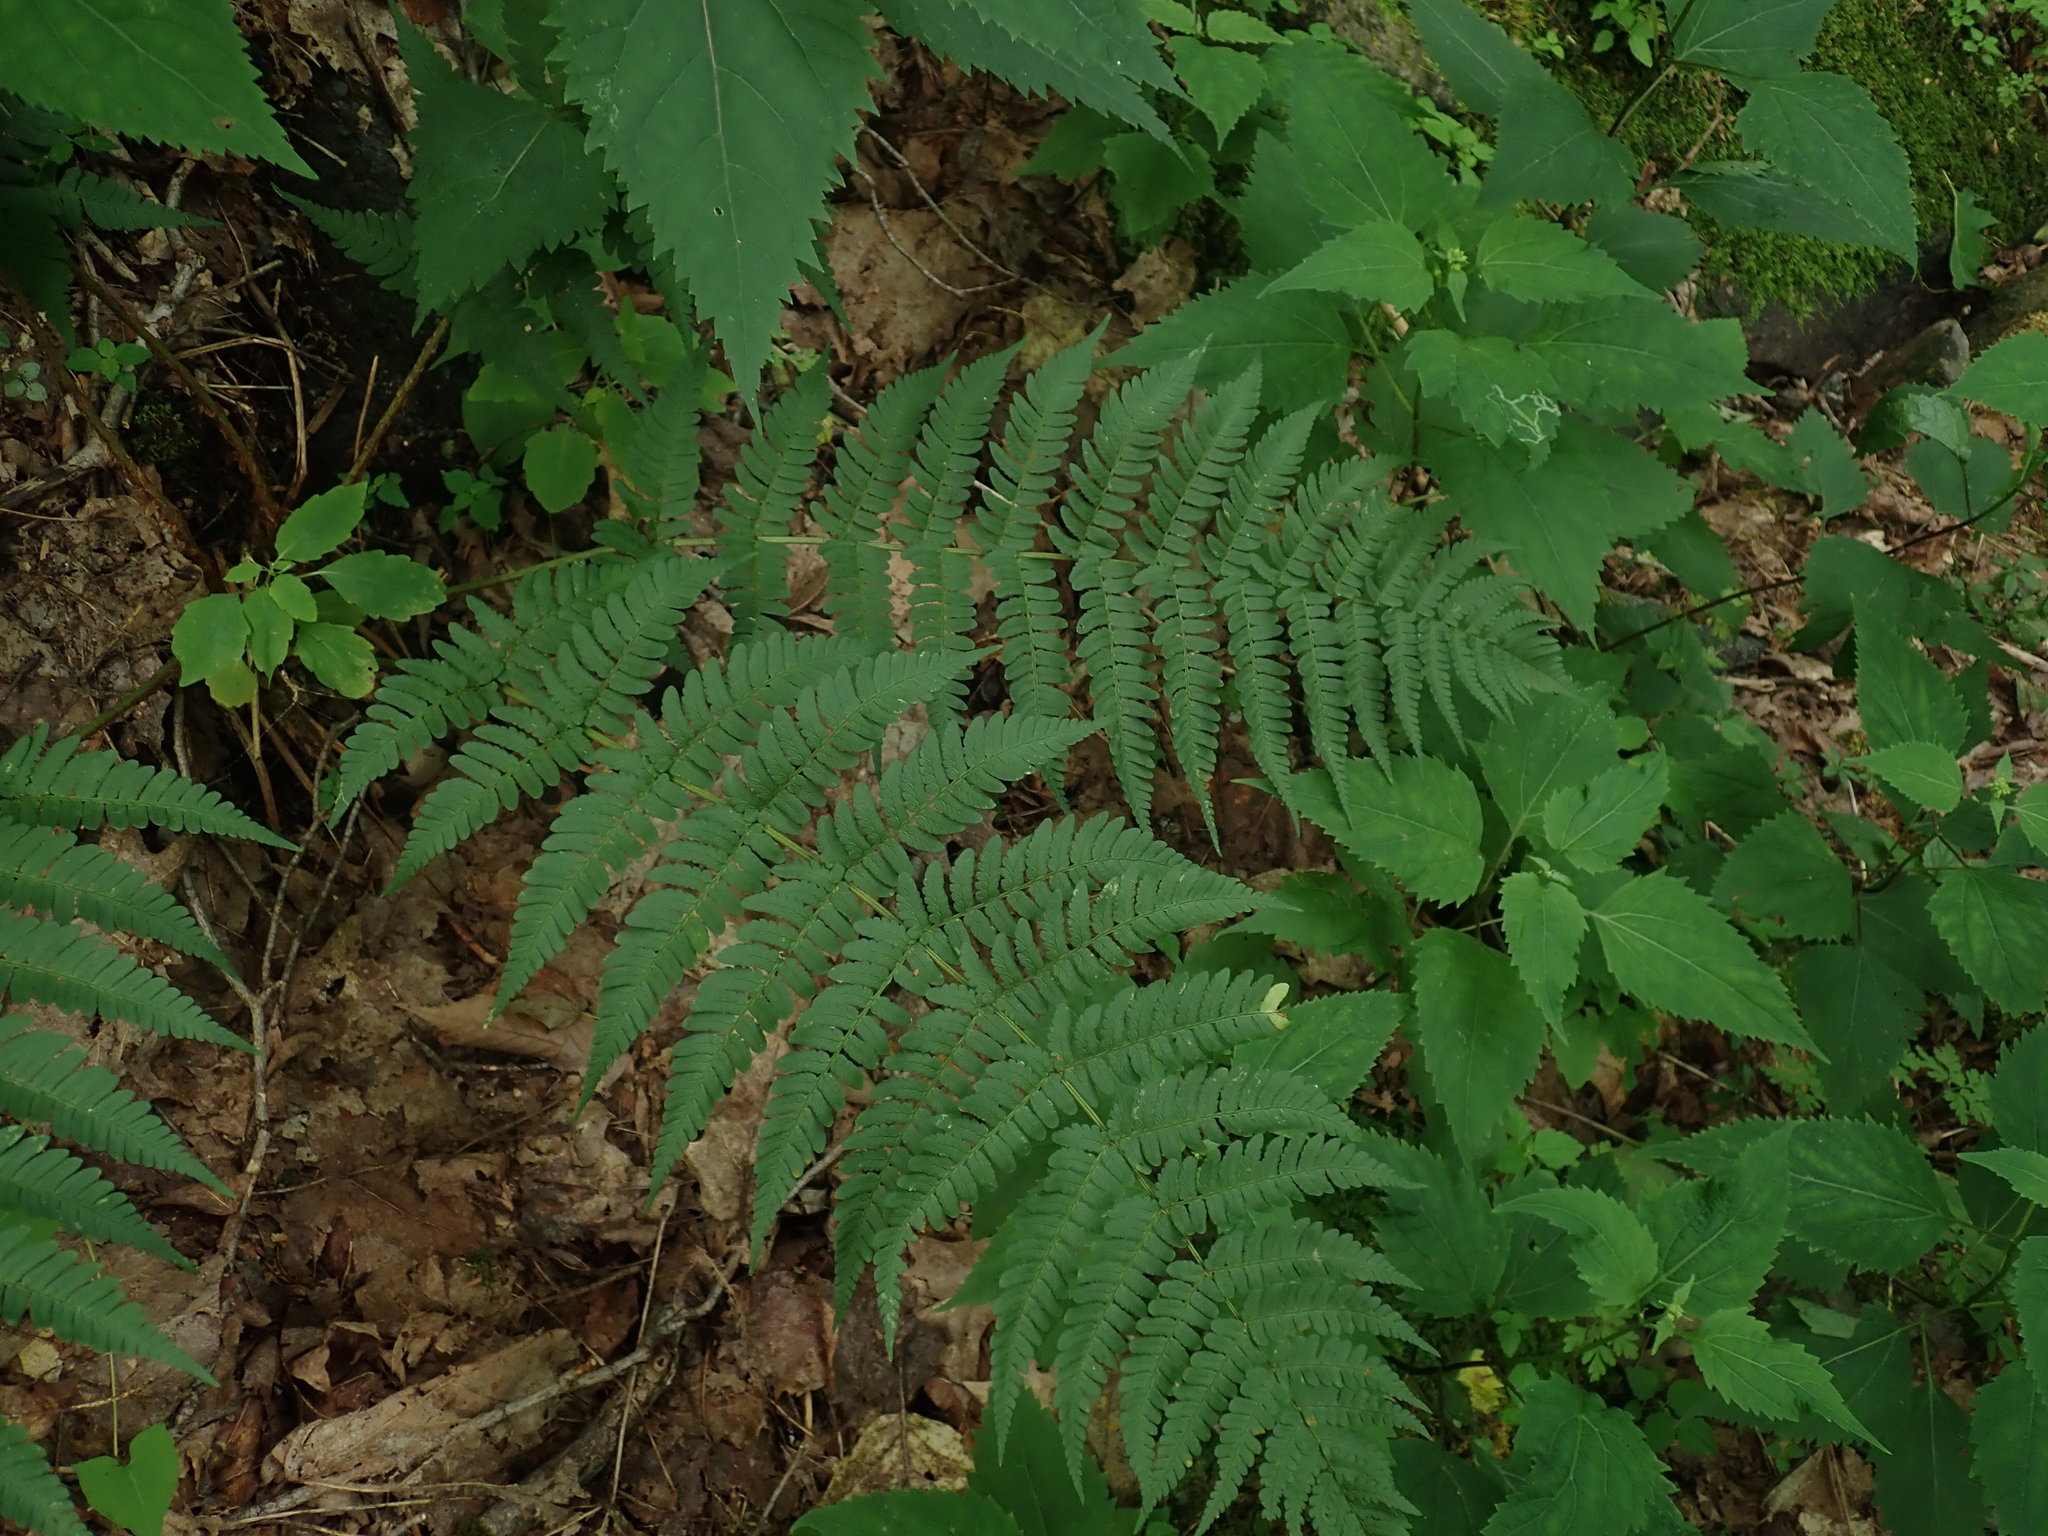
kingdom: Plantae
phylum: Tracheophyta
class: Polypodiopsida
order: Polypodiales
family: Dryopteridaceae
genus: Dryopteris
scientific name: Dryopteris marginalis
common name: Marginal wood fern
